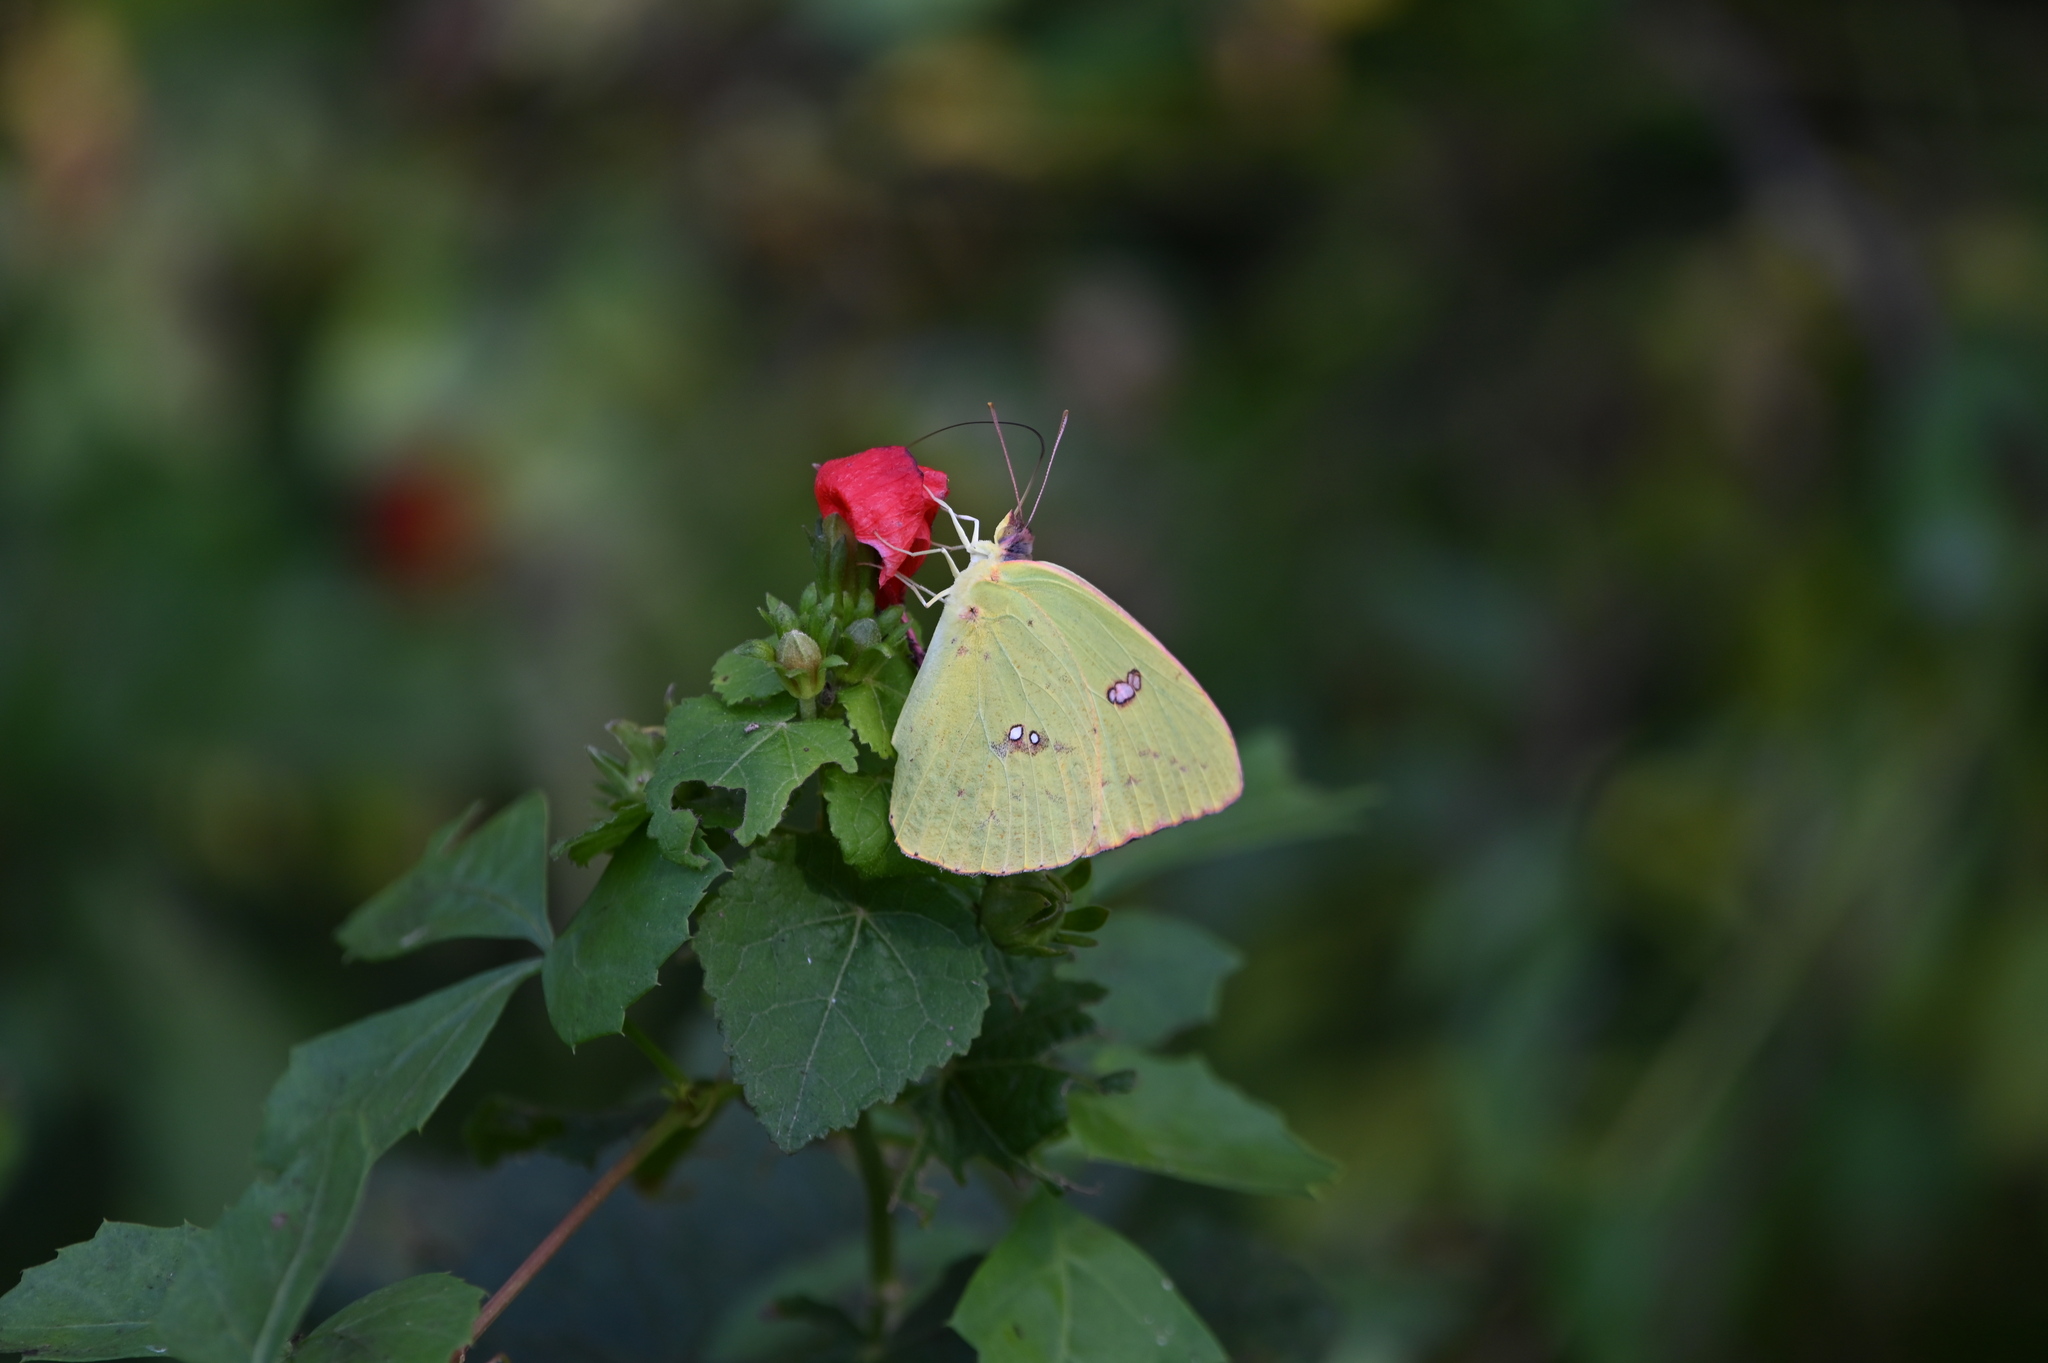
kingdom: Animalia
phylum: Arthropoda
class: Insecta
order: Lepidoptera
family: Pieridae
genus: Phoebis
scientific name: Phoebis sennae
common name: Cloudless sulphur
